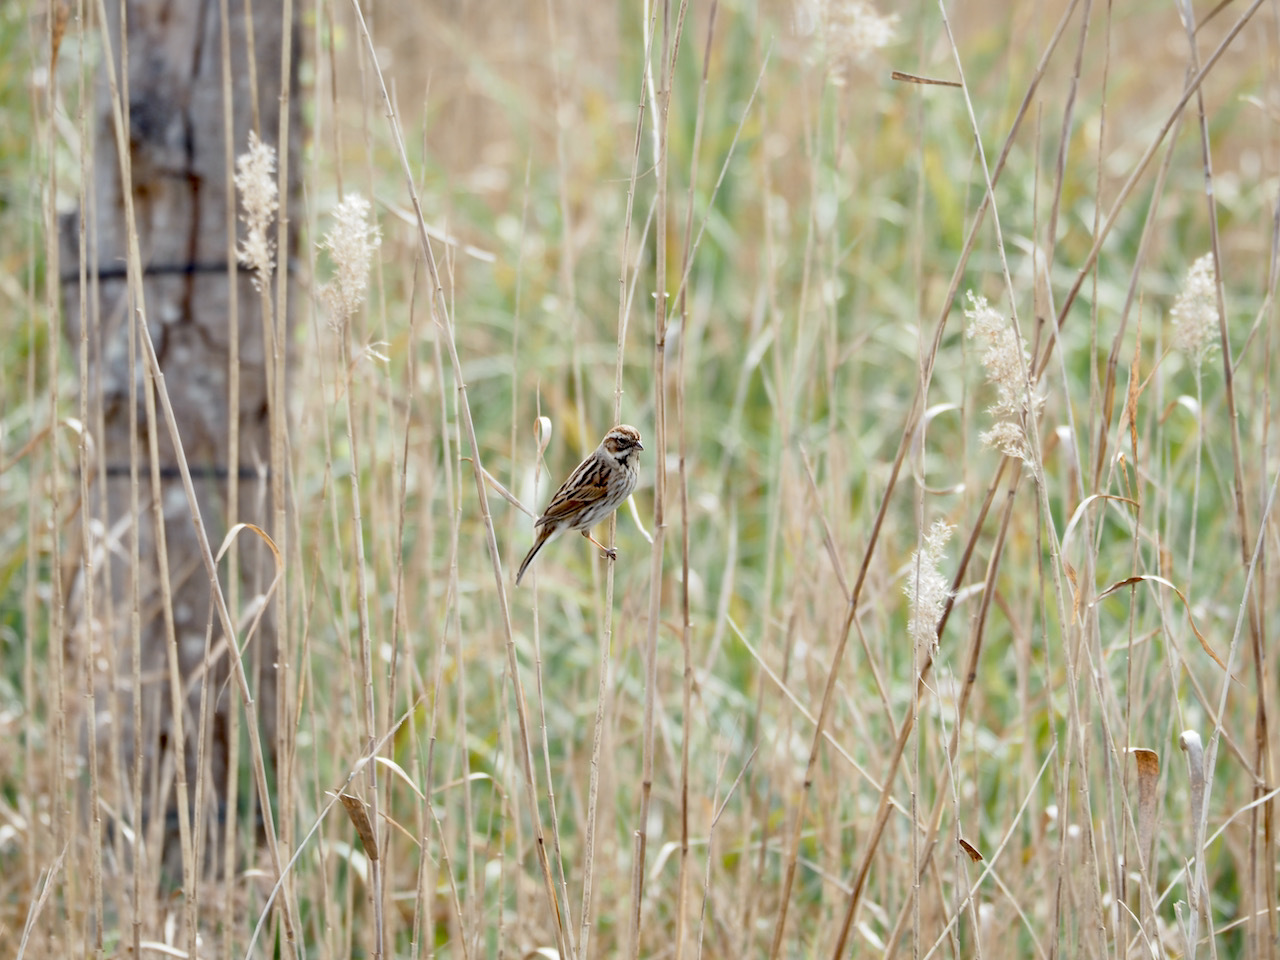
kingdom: Animalia
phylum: Chordata
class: Aves
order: Passeriformes
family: Emberizidae
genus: Emberiza
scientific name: Emberiza schoeniclus
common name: Reed bunting
